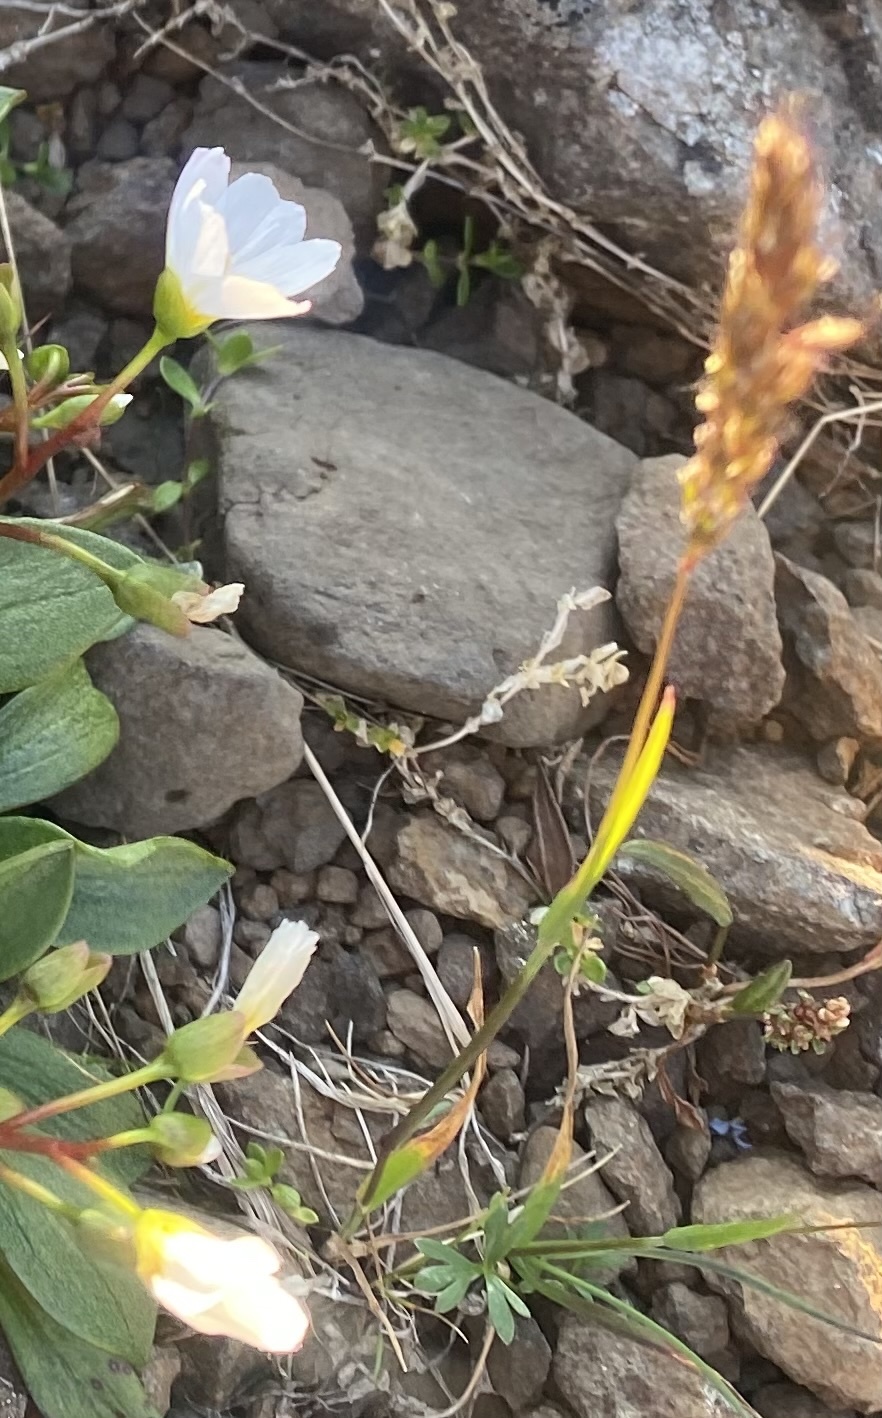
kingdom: Plantae
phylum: Tracheophyta
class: Liliopsida
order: Poales
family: Poaceae
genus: Koeleria
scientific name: Koeleria spicata
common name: Mountain trisetum
